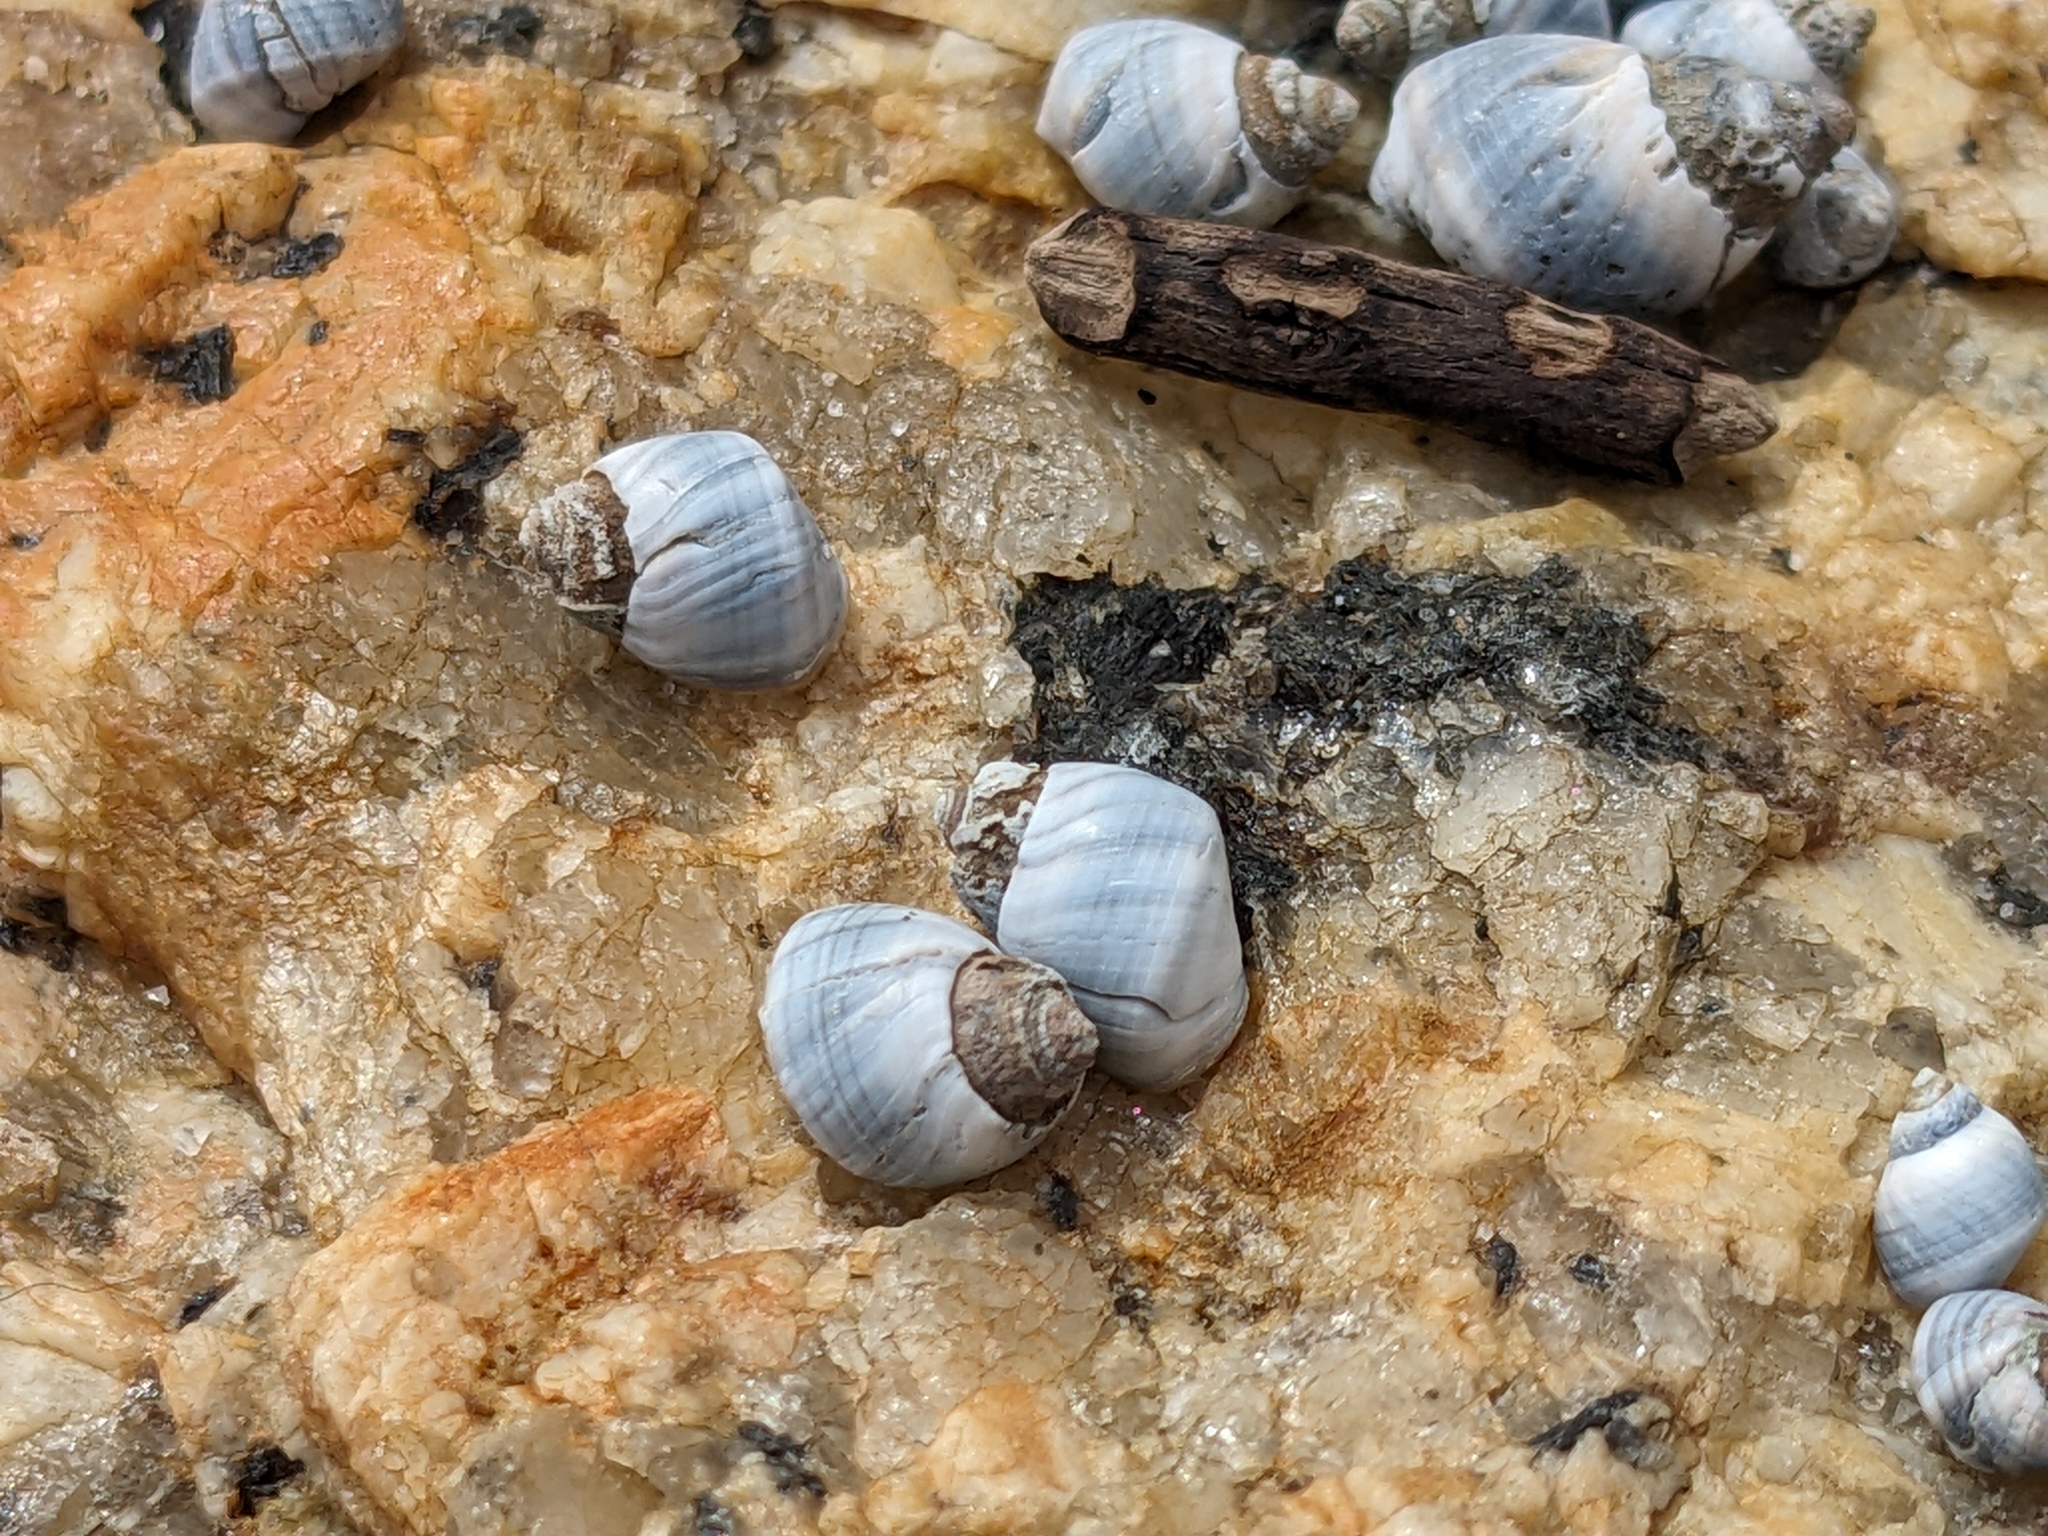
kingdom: Animalia
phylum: Mollusca
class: Gastropoda
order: Littorinimorpha
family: Littorinidae
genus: Austrolittorina
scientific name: Austrolittorina unifasciata
